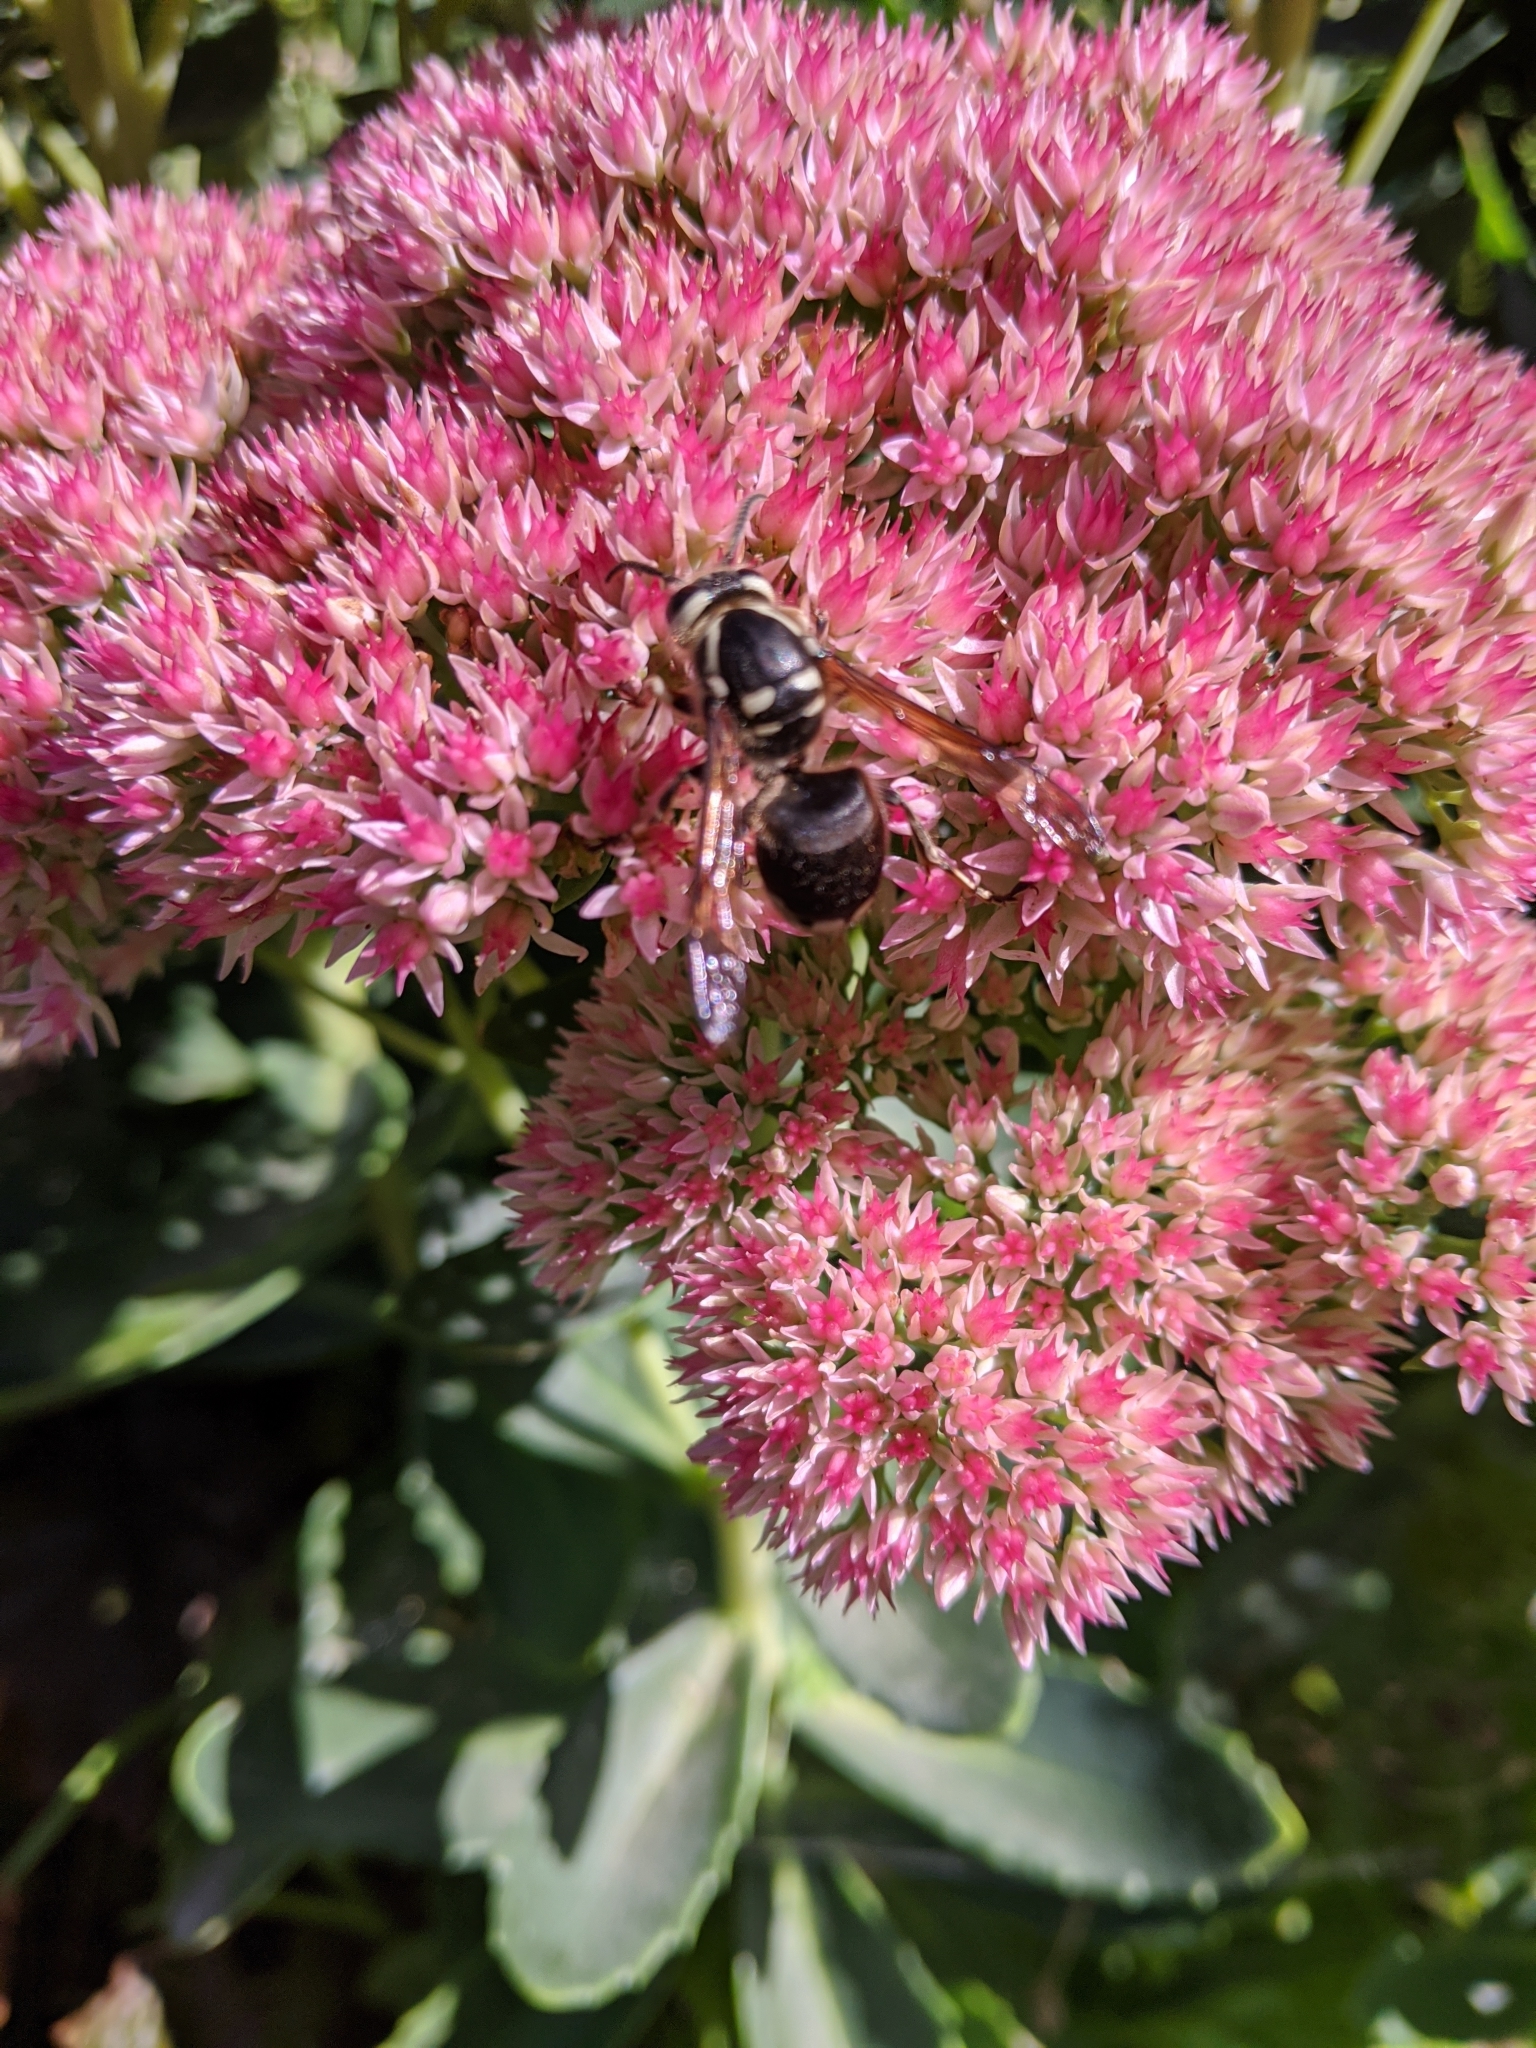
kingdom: Animalia
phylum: Arthropoda
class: Insecta
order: Hymenoptera
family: Vespidae
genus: Dolichovespula
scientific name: Dolichovespula maculata
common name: Bald-faced hornet
